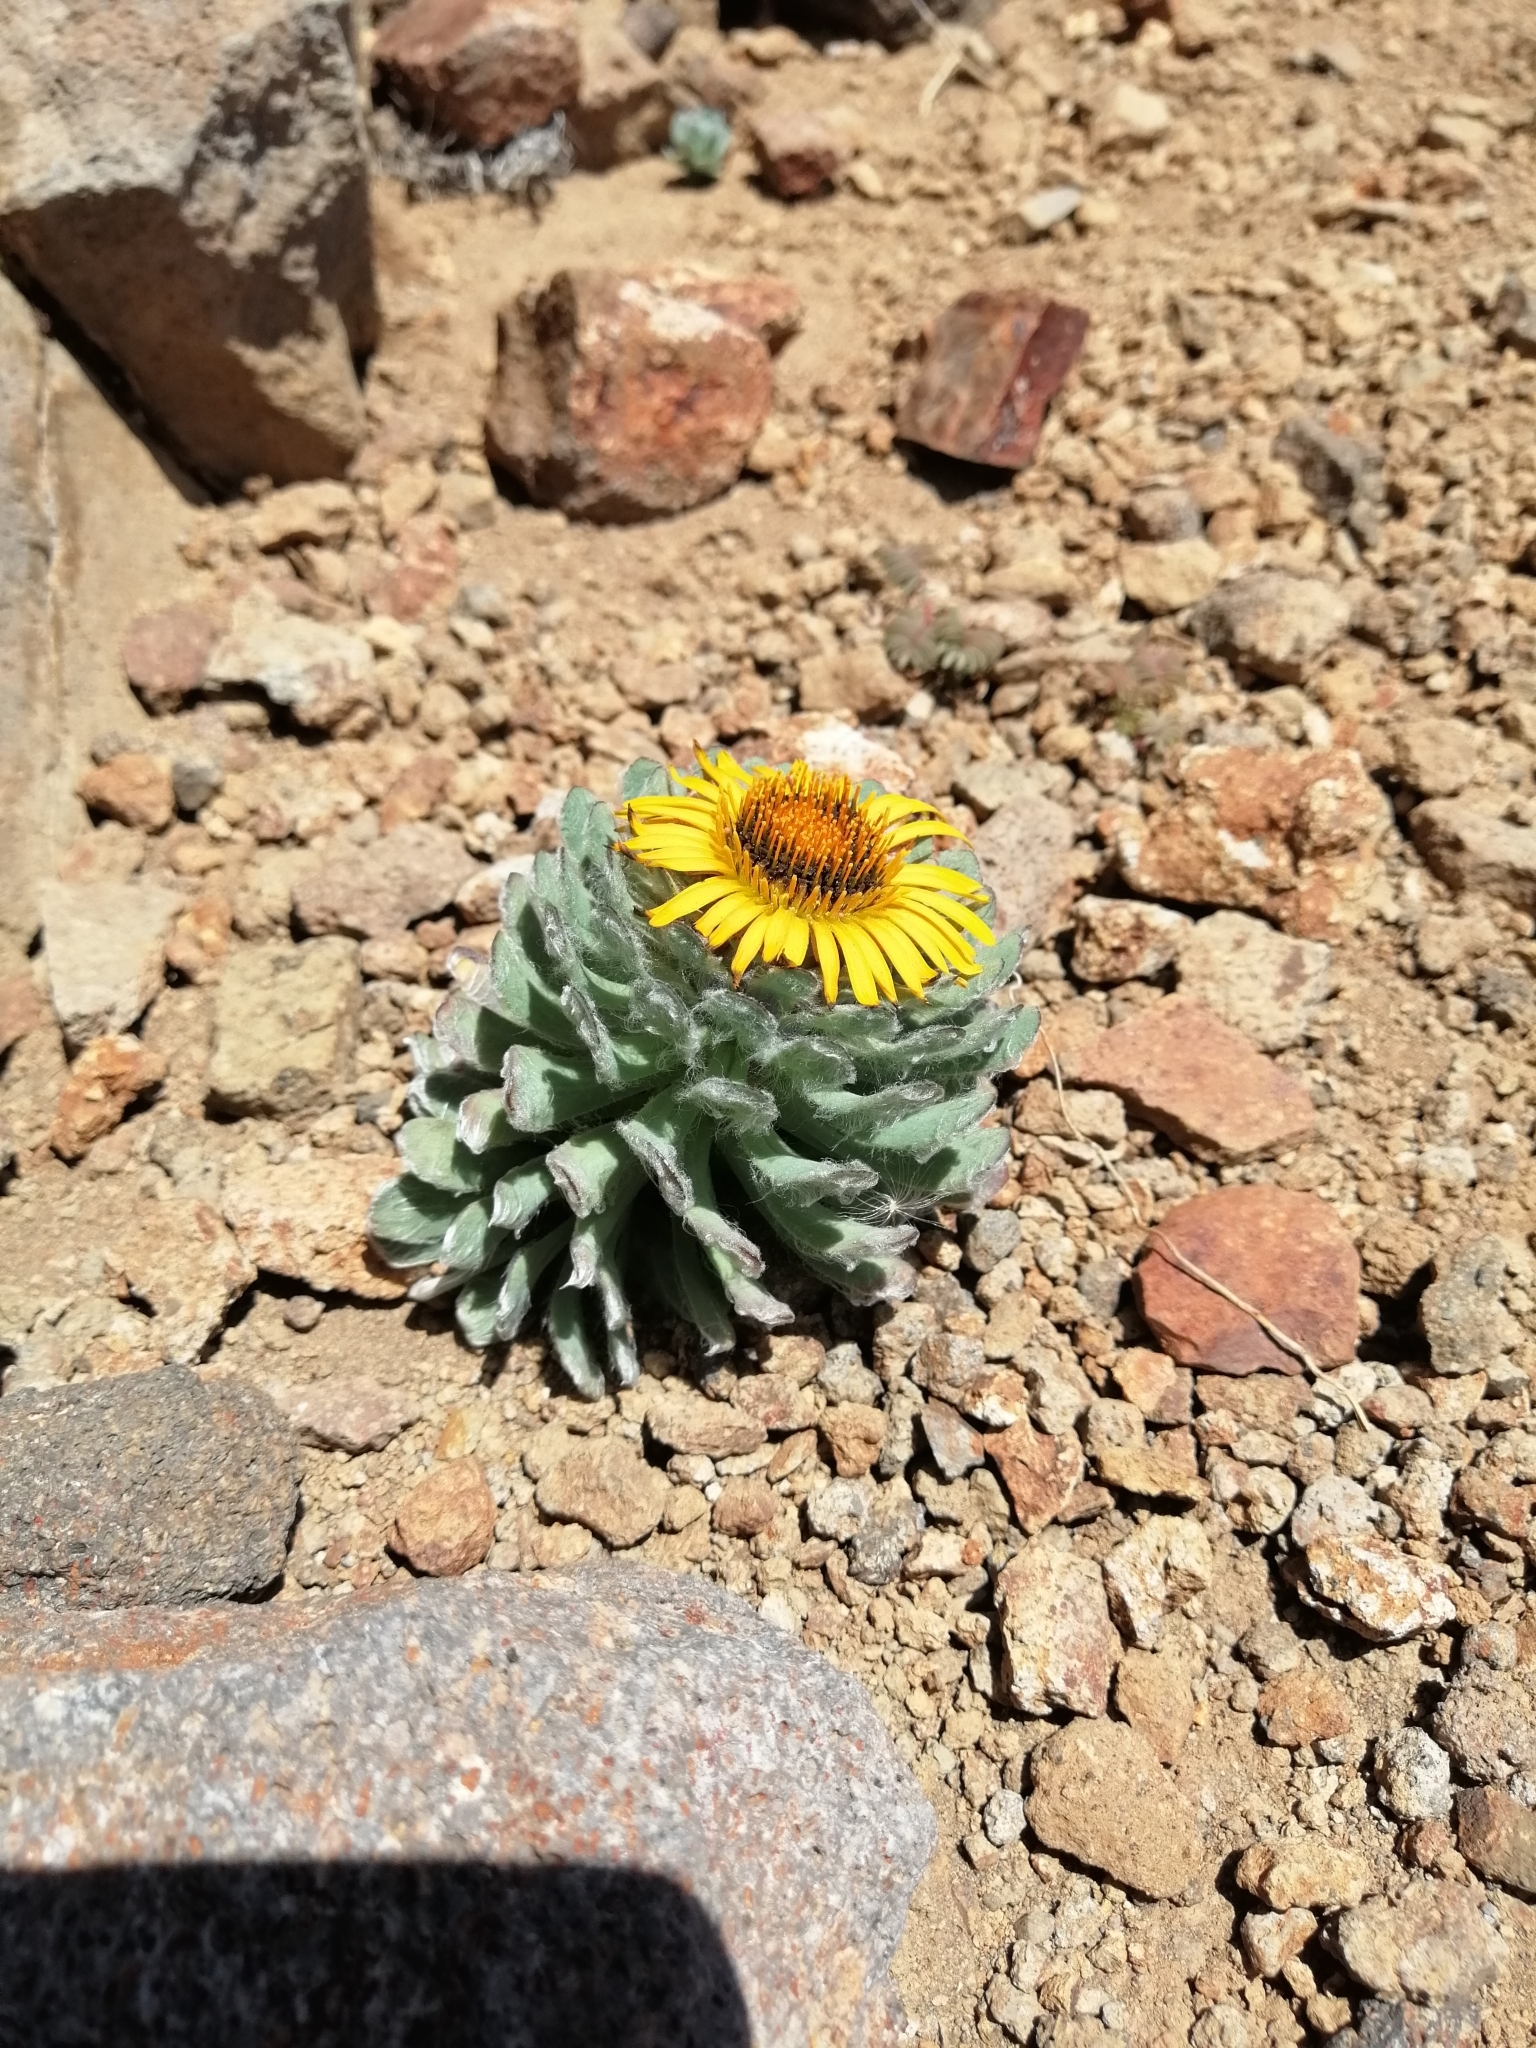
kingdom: Plantae
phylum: Tracheophyta
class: Magnoliopsida
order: Asterales
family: Asteraceae
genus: Chaetanthera
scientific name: Chaetanthera villosa
